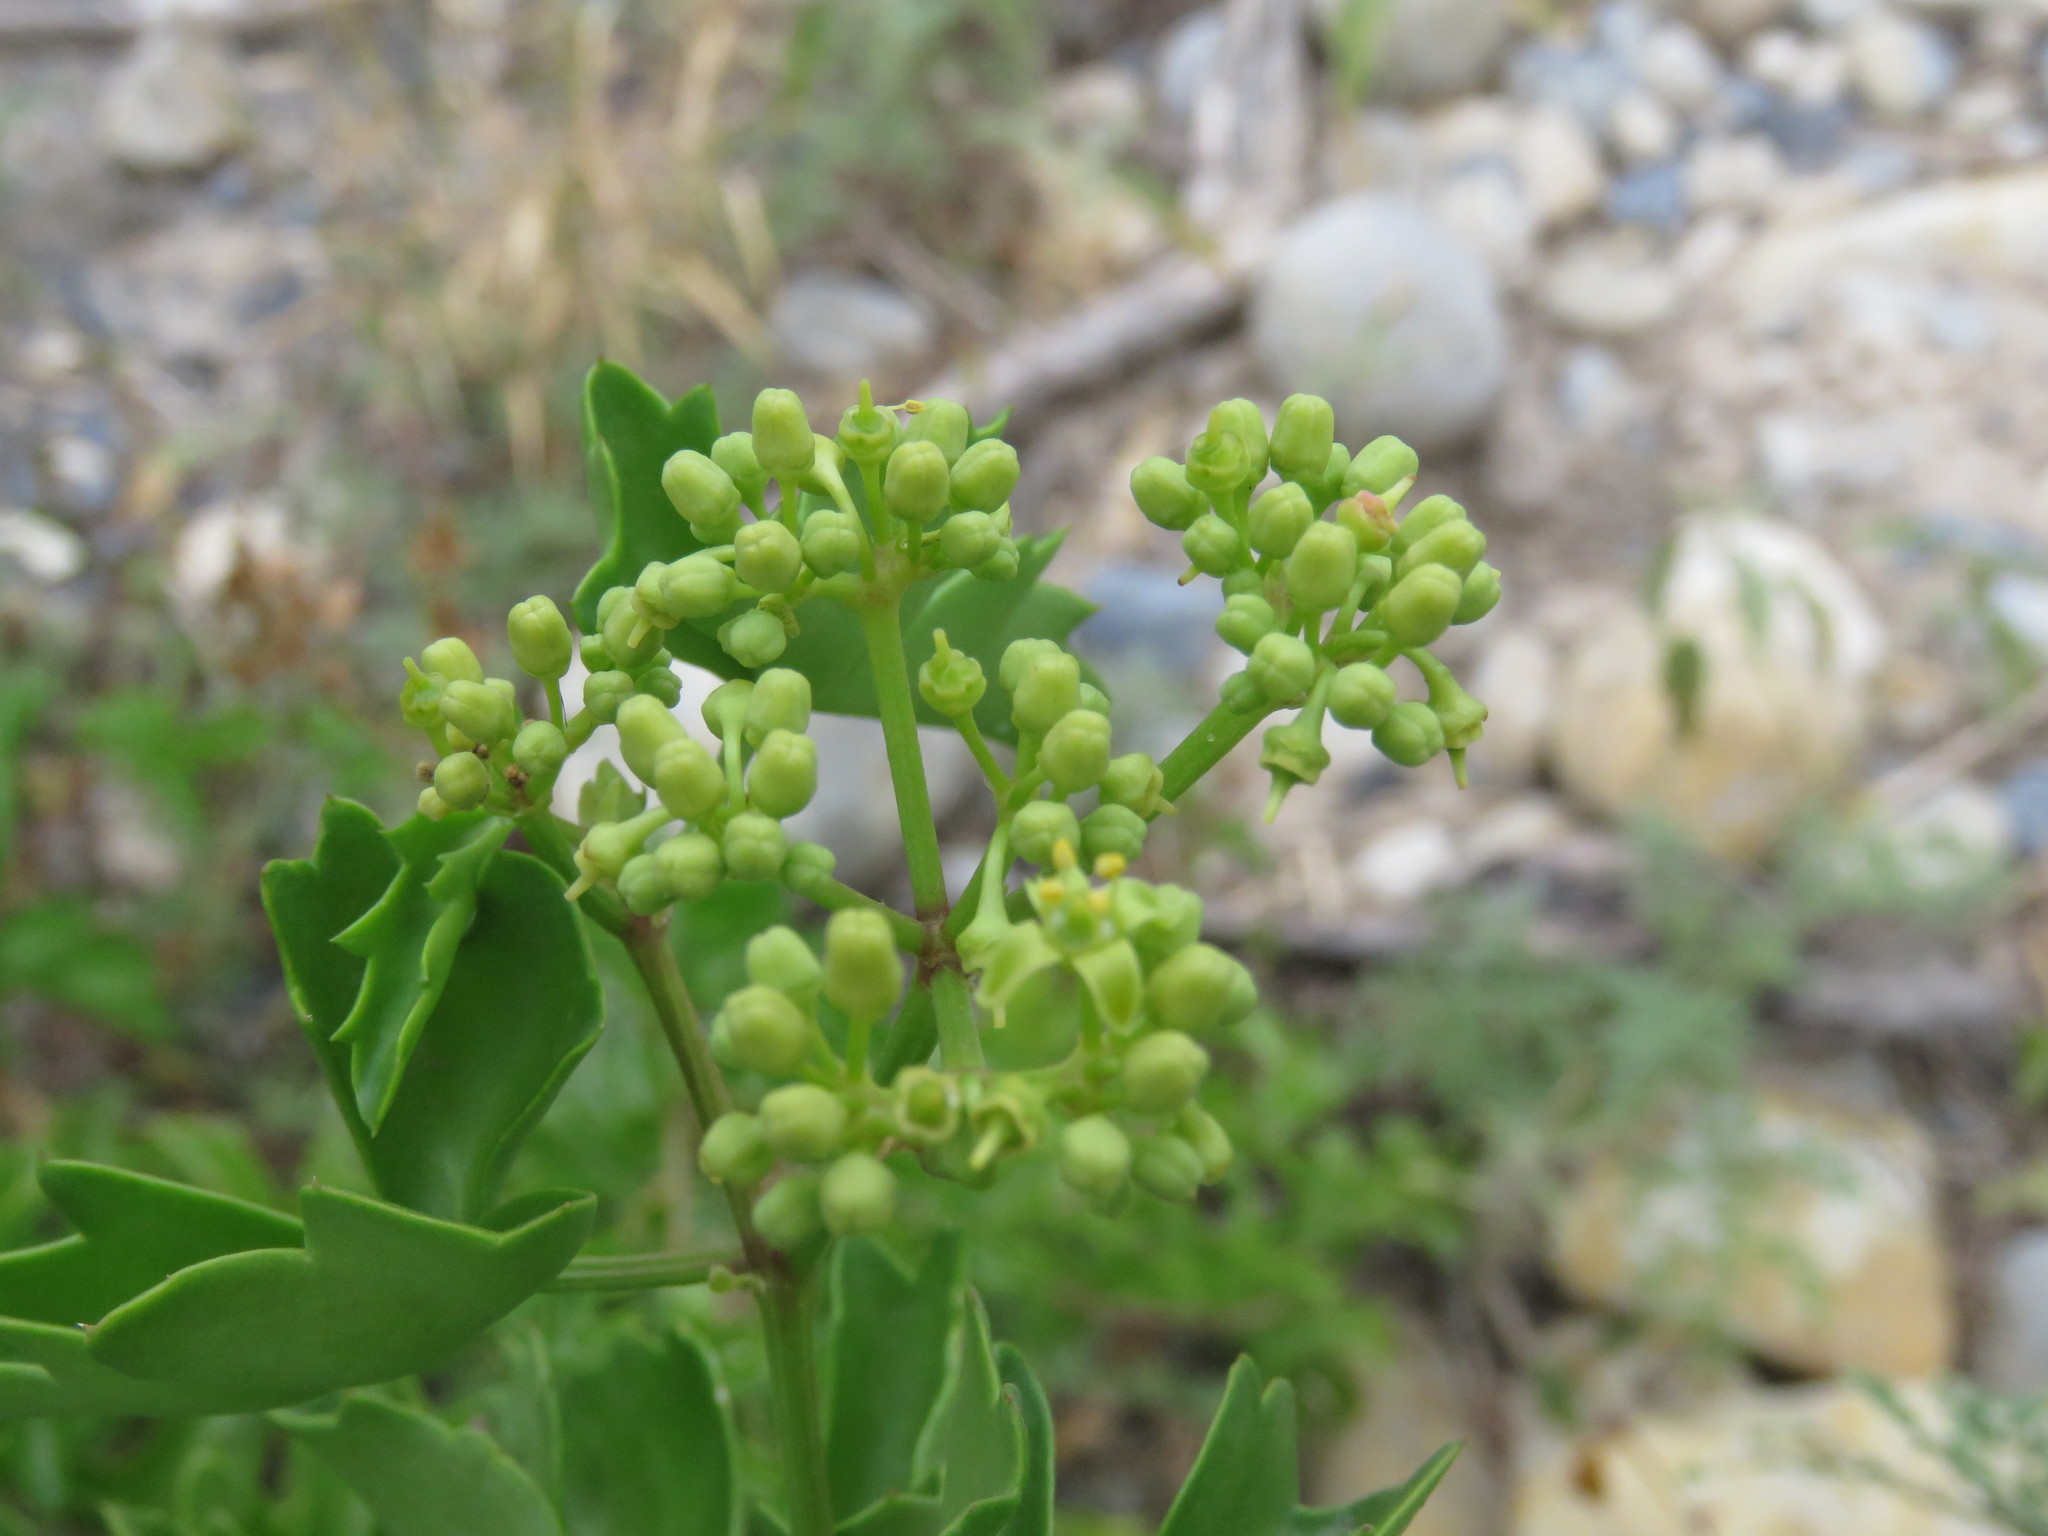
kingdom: Plantae
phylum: Tracheophyta
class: Magnoliopsida
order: Vitales
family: Vitaceae
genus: Cissus
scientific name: Cissus trifoliata
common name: Vine-sorrel
